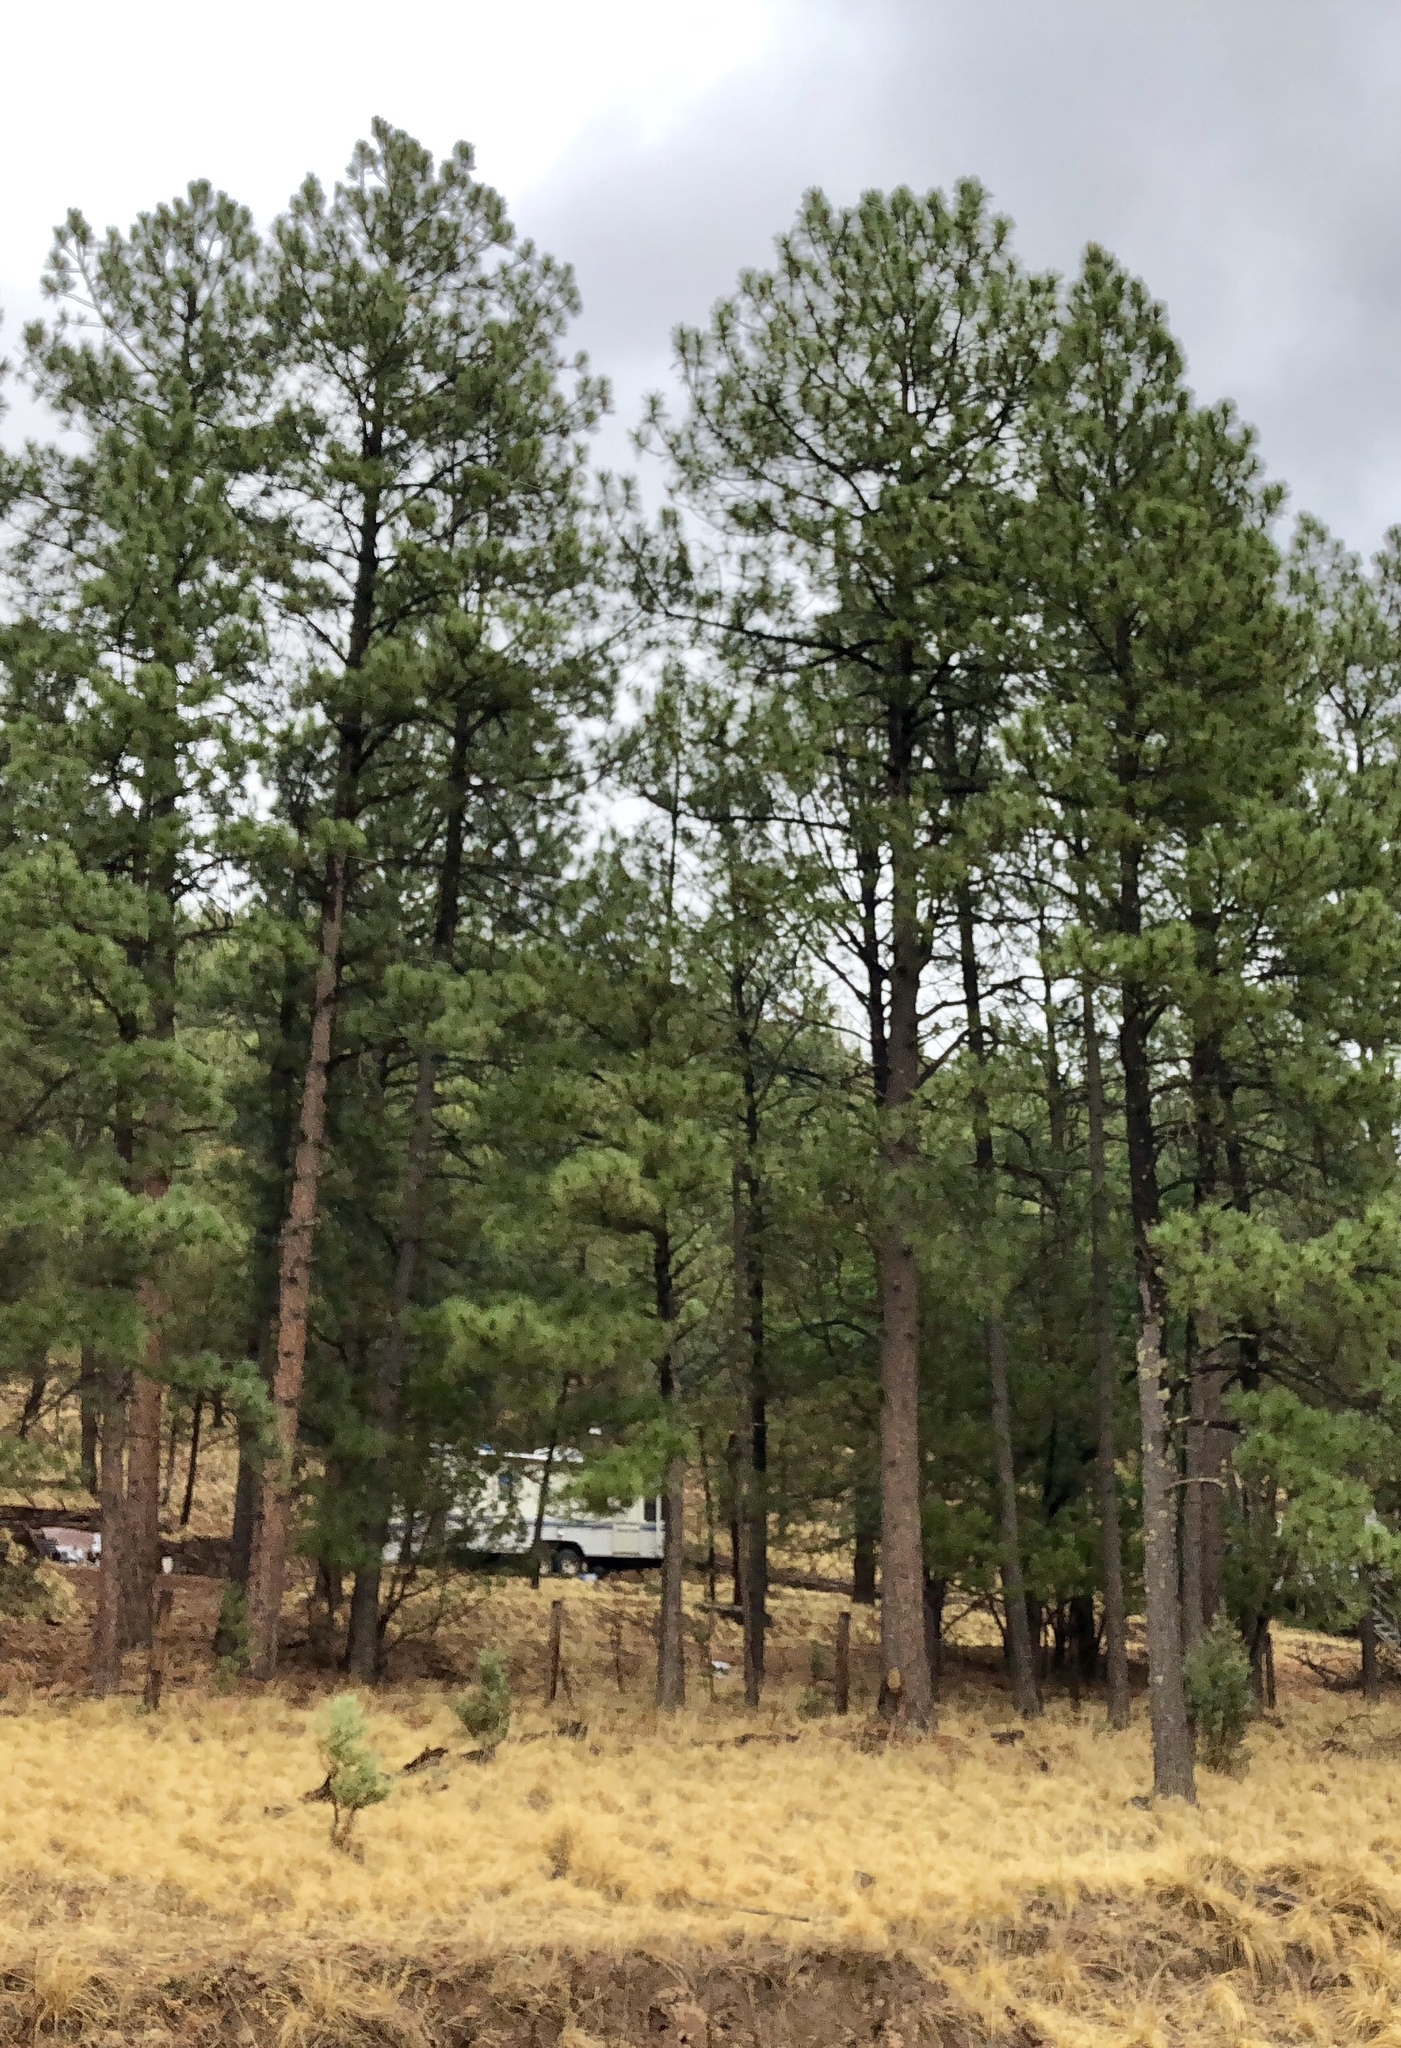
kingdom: Plantae
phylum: Tracheophyta
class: Pinopsida
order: Pinales
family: Pinaceae
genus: Pinus
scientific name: Pinus ponderosa
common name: Western yellow-pine
